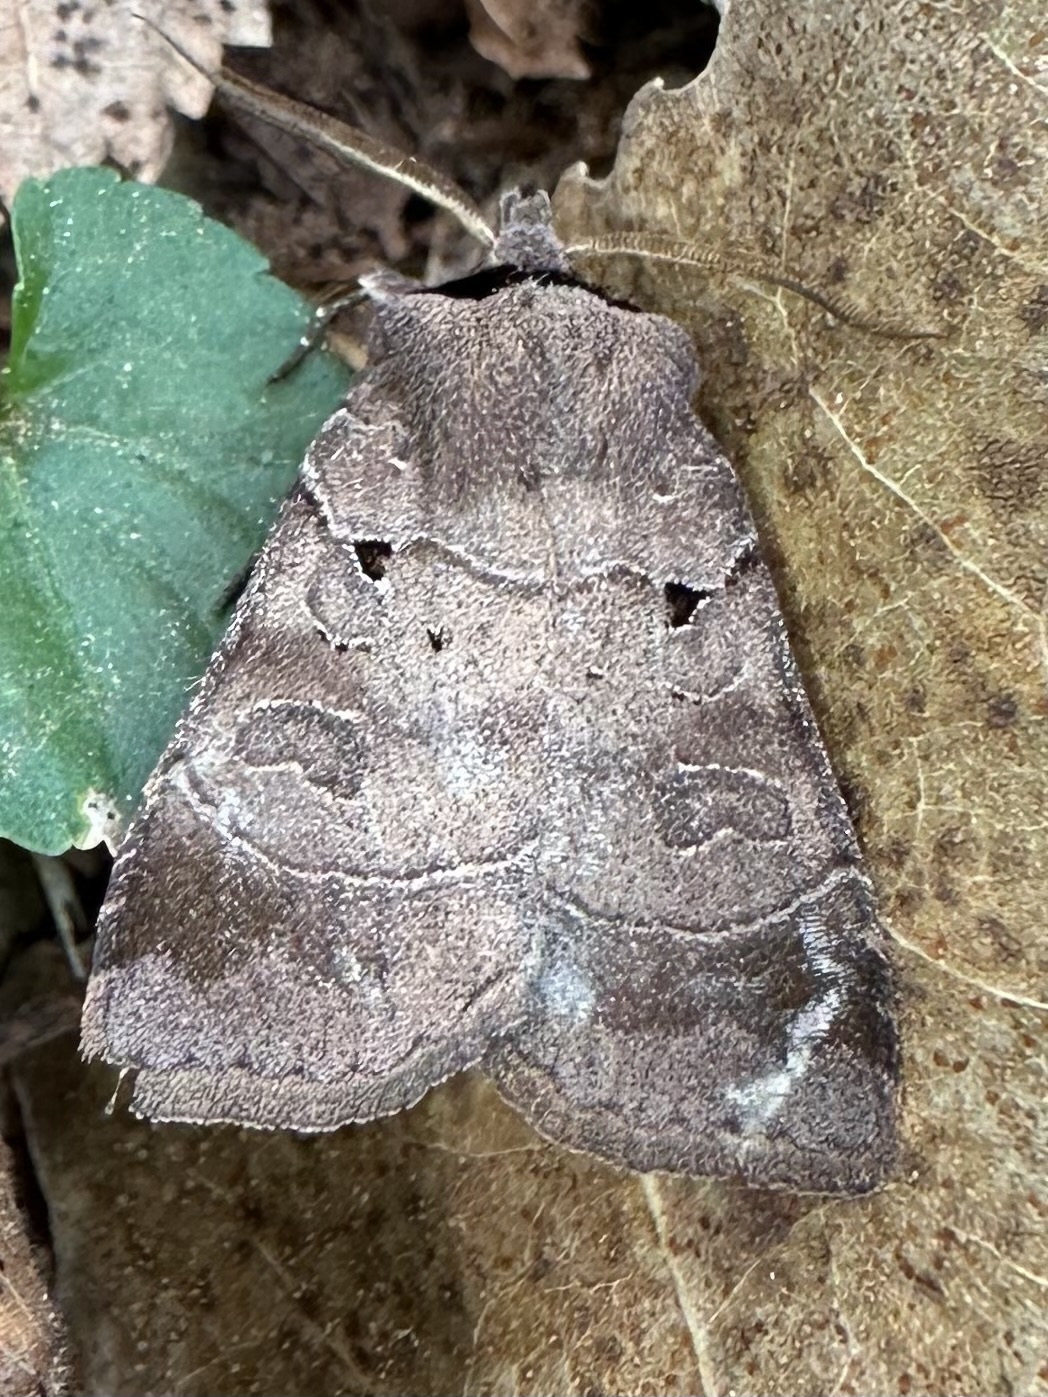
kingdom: Animalia
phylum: Arthropoda
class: Insecta
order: Lepidoptera
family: Noctuidae
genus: Agnorisma
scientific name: Agnorisma badinodis
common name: Pale-banded dart
